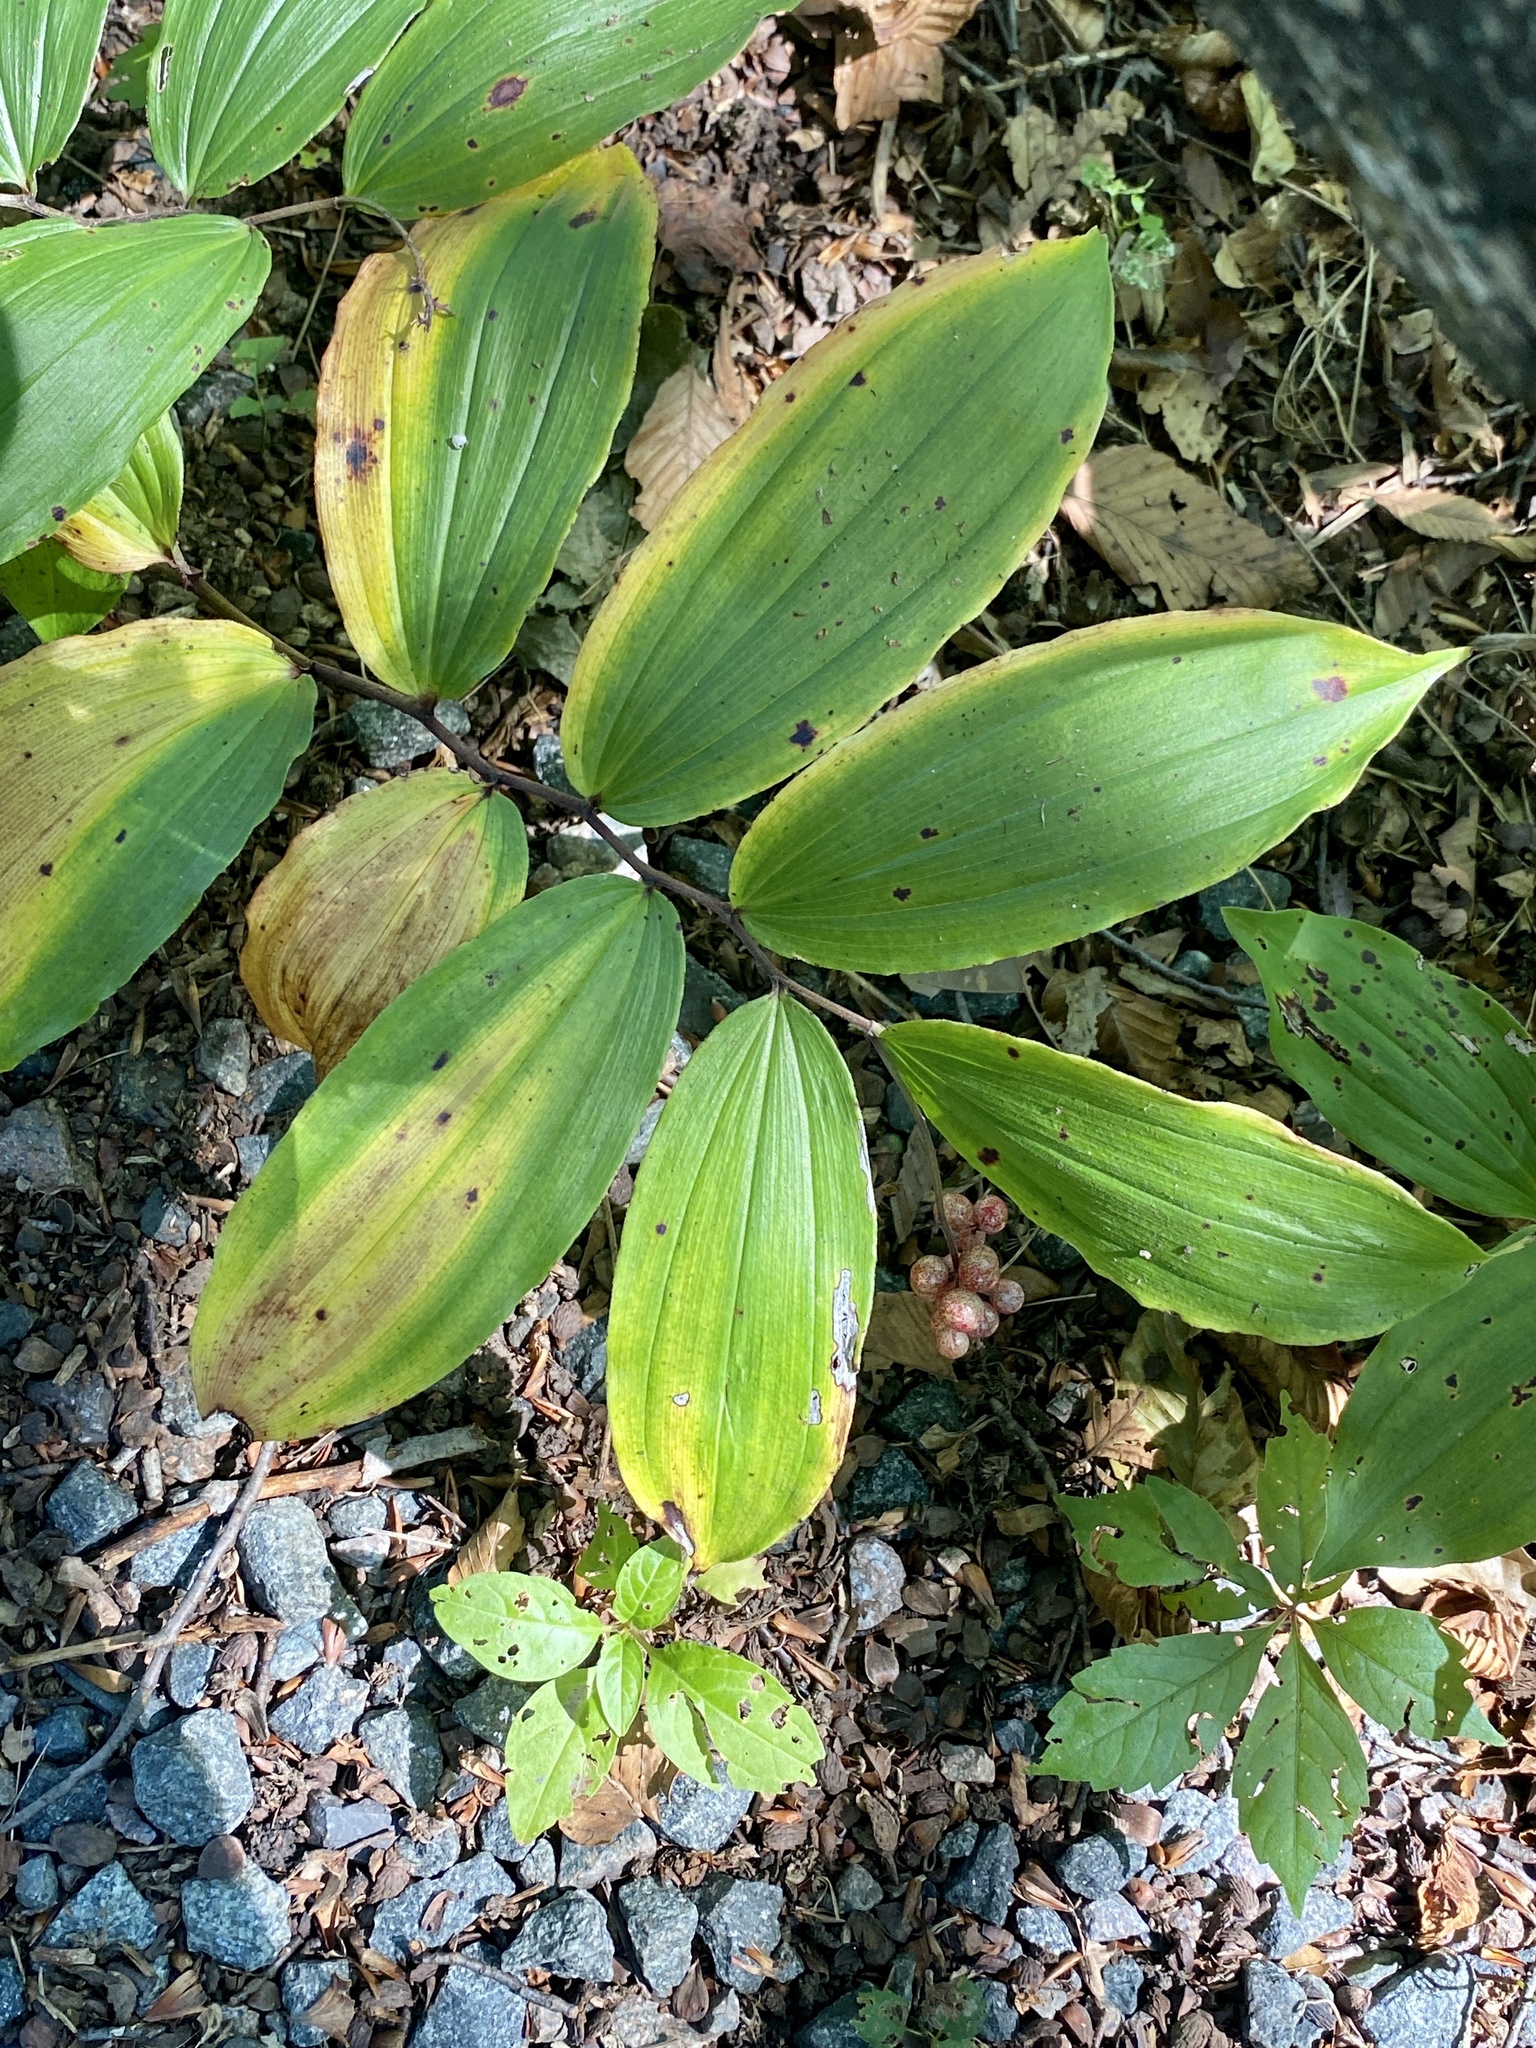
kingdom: Plantae
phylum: Tracheophyta
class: Liliopsida
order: Asparagales
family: Asparagaceae
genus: Maianthemum
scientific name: Maianthemum racemosum
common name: False spikenard
